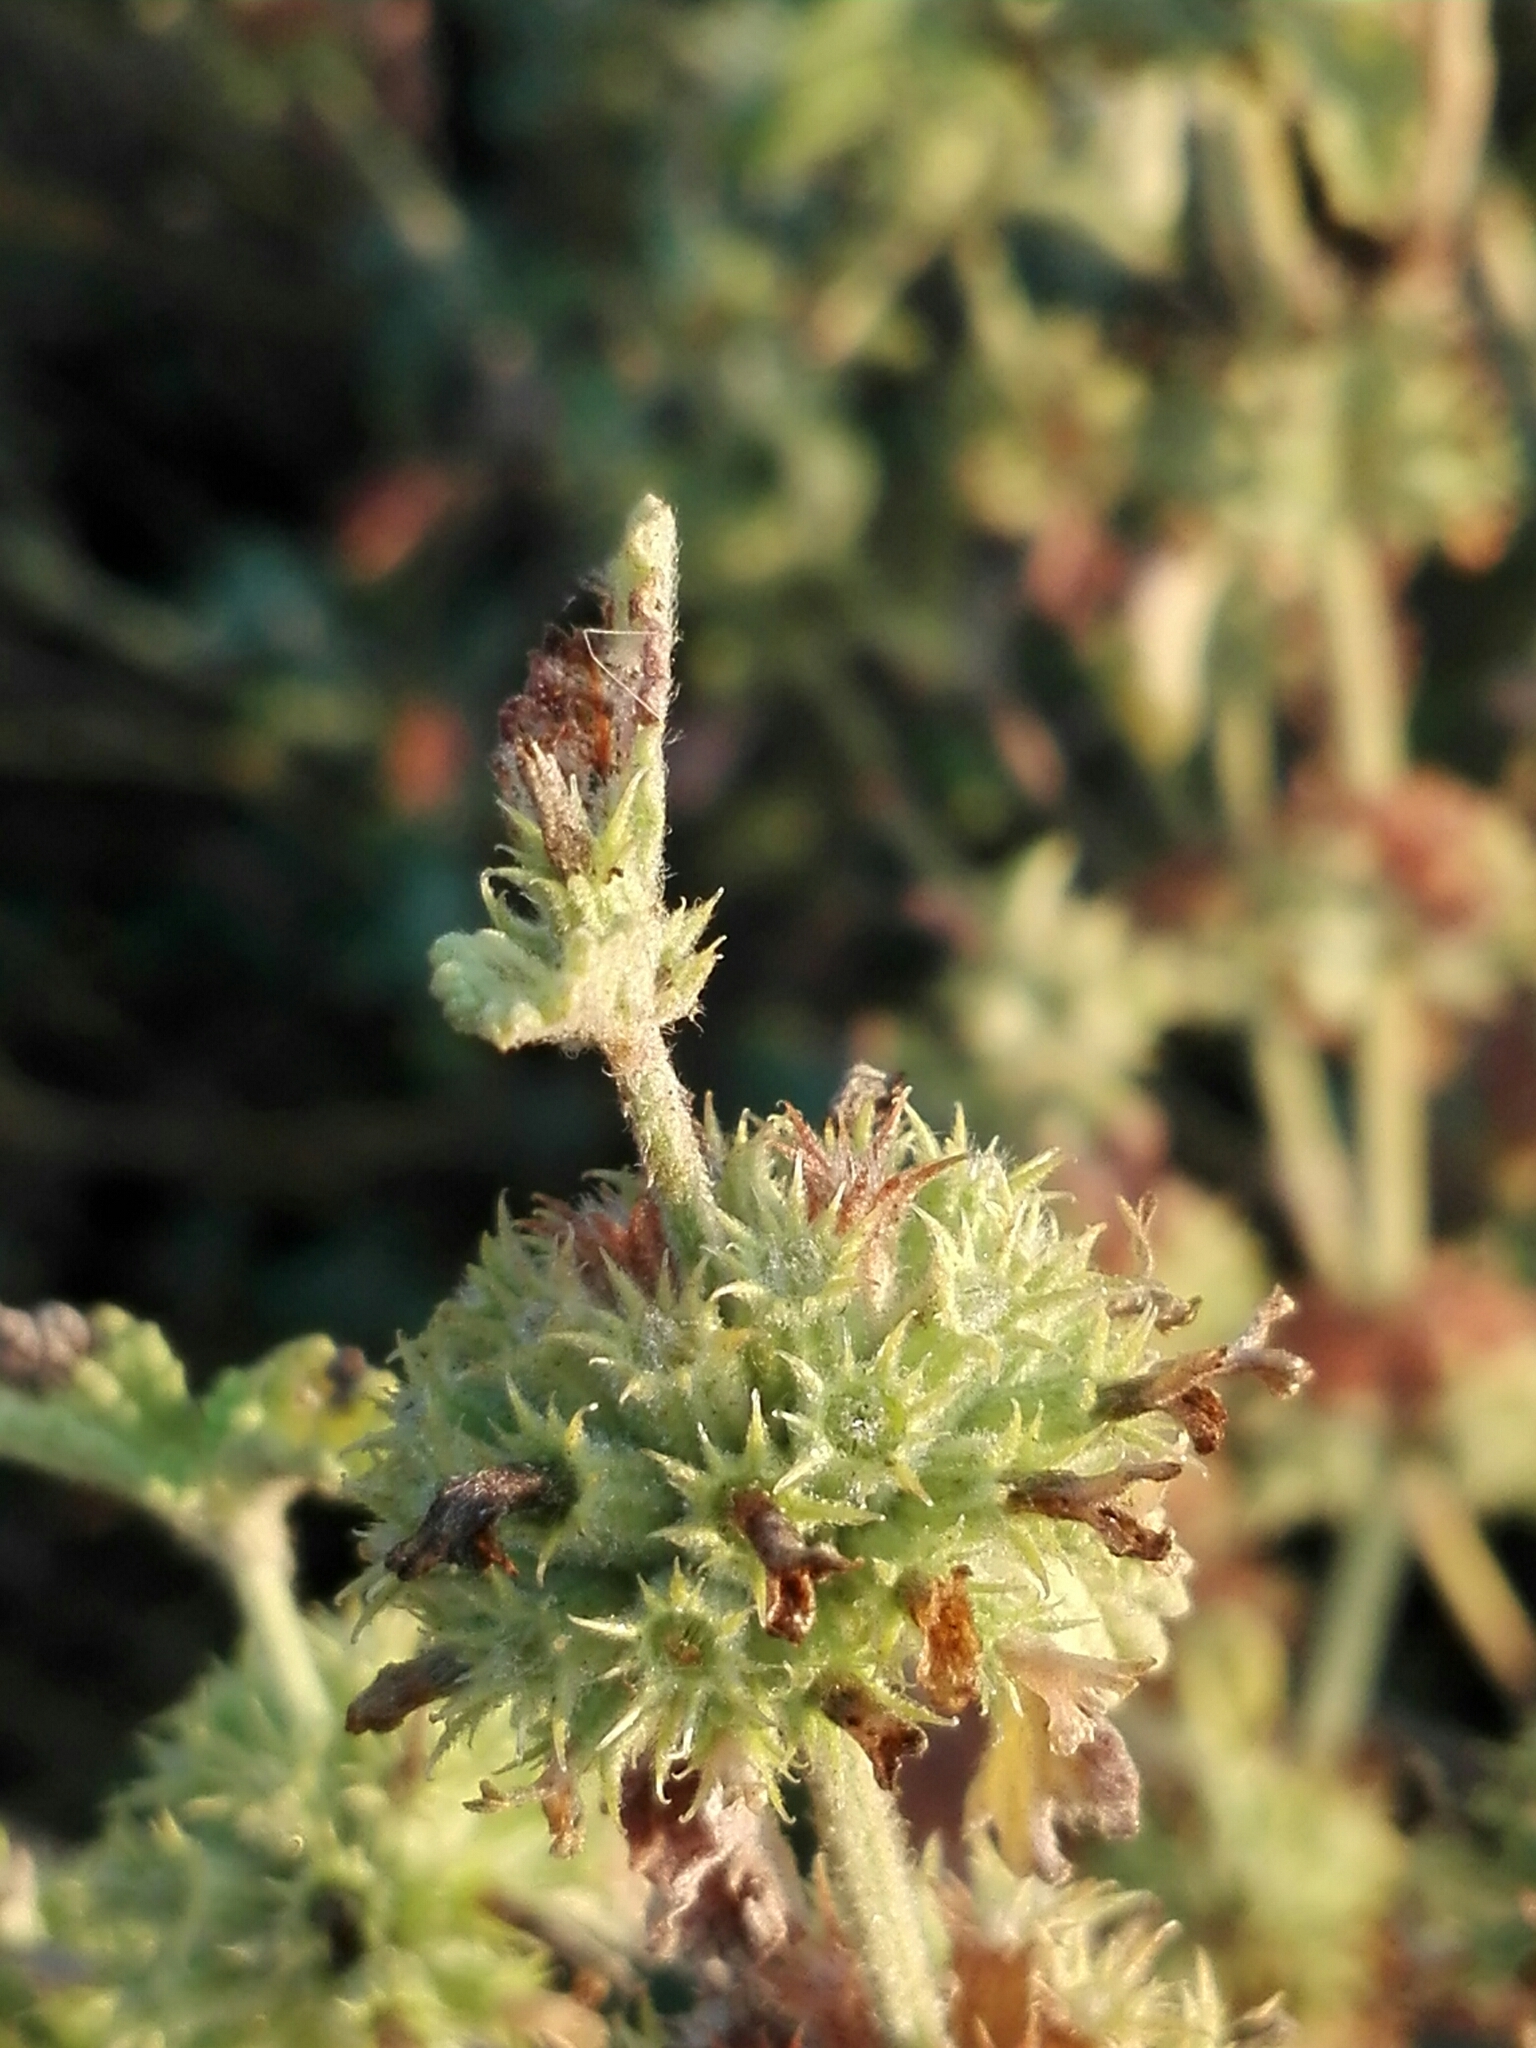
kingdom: Plantae
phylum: Tracheophyta
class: Magnoliopsida
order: Lamiales
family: Lamiaceae
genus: Marrubium
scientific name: Marrubium vulgare
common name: Horehound
